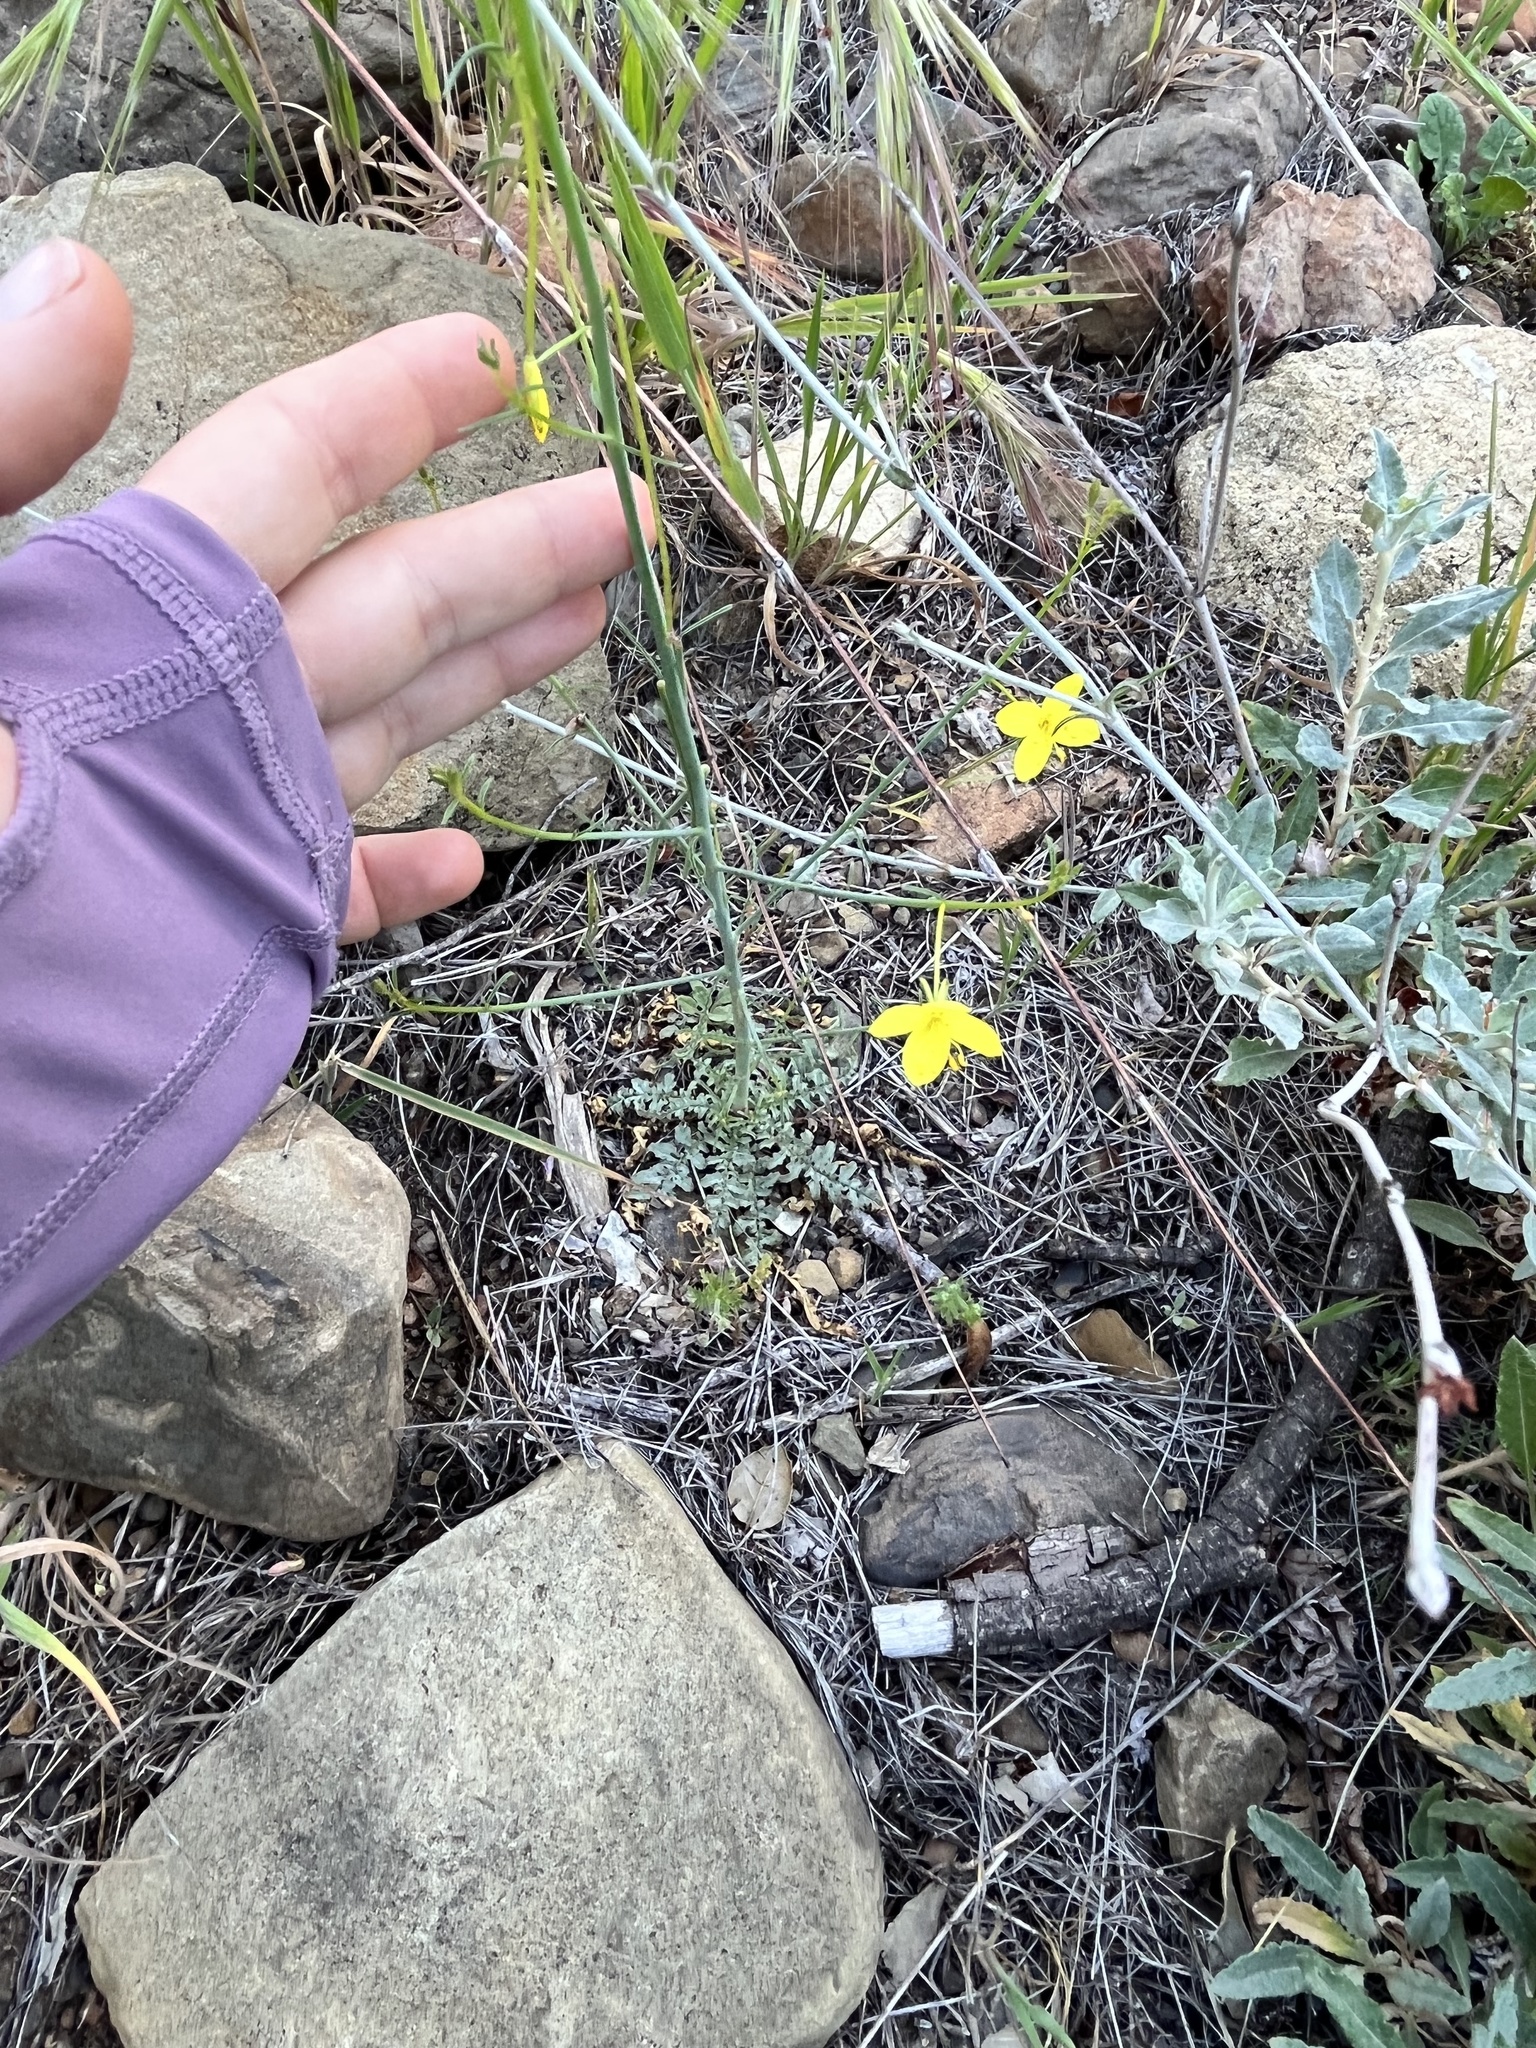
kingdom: Plantae
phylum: Tracheophyta
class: Magnoliopsida
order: Myrtales
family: Onagraceae
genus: Eulobus
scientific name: Eulobus californicus
